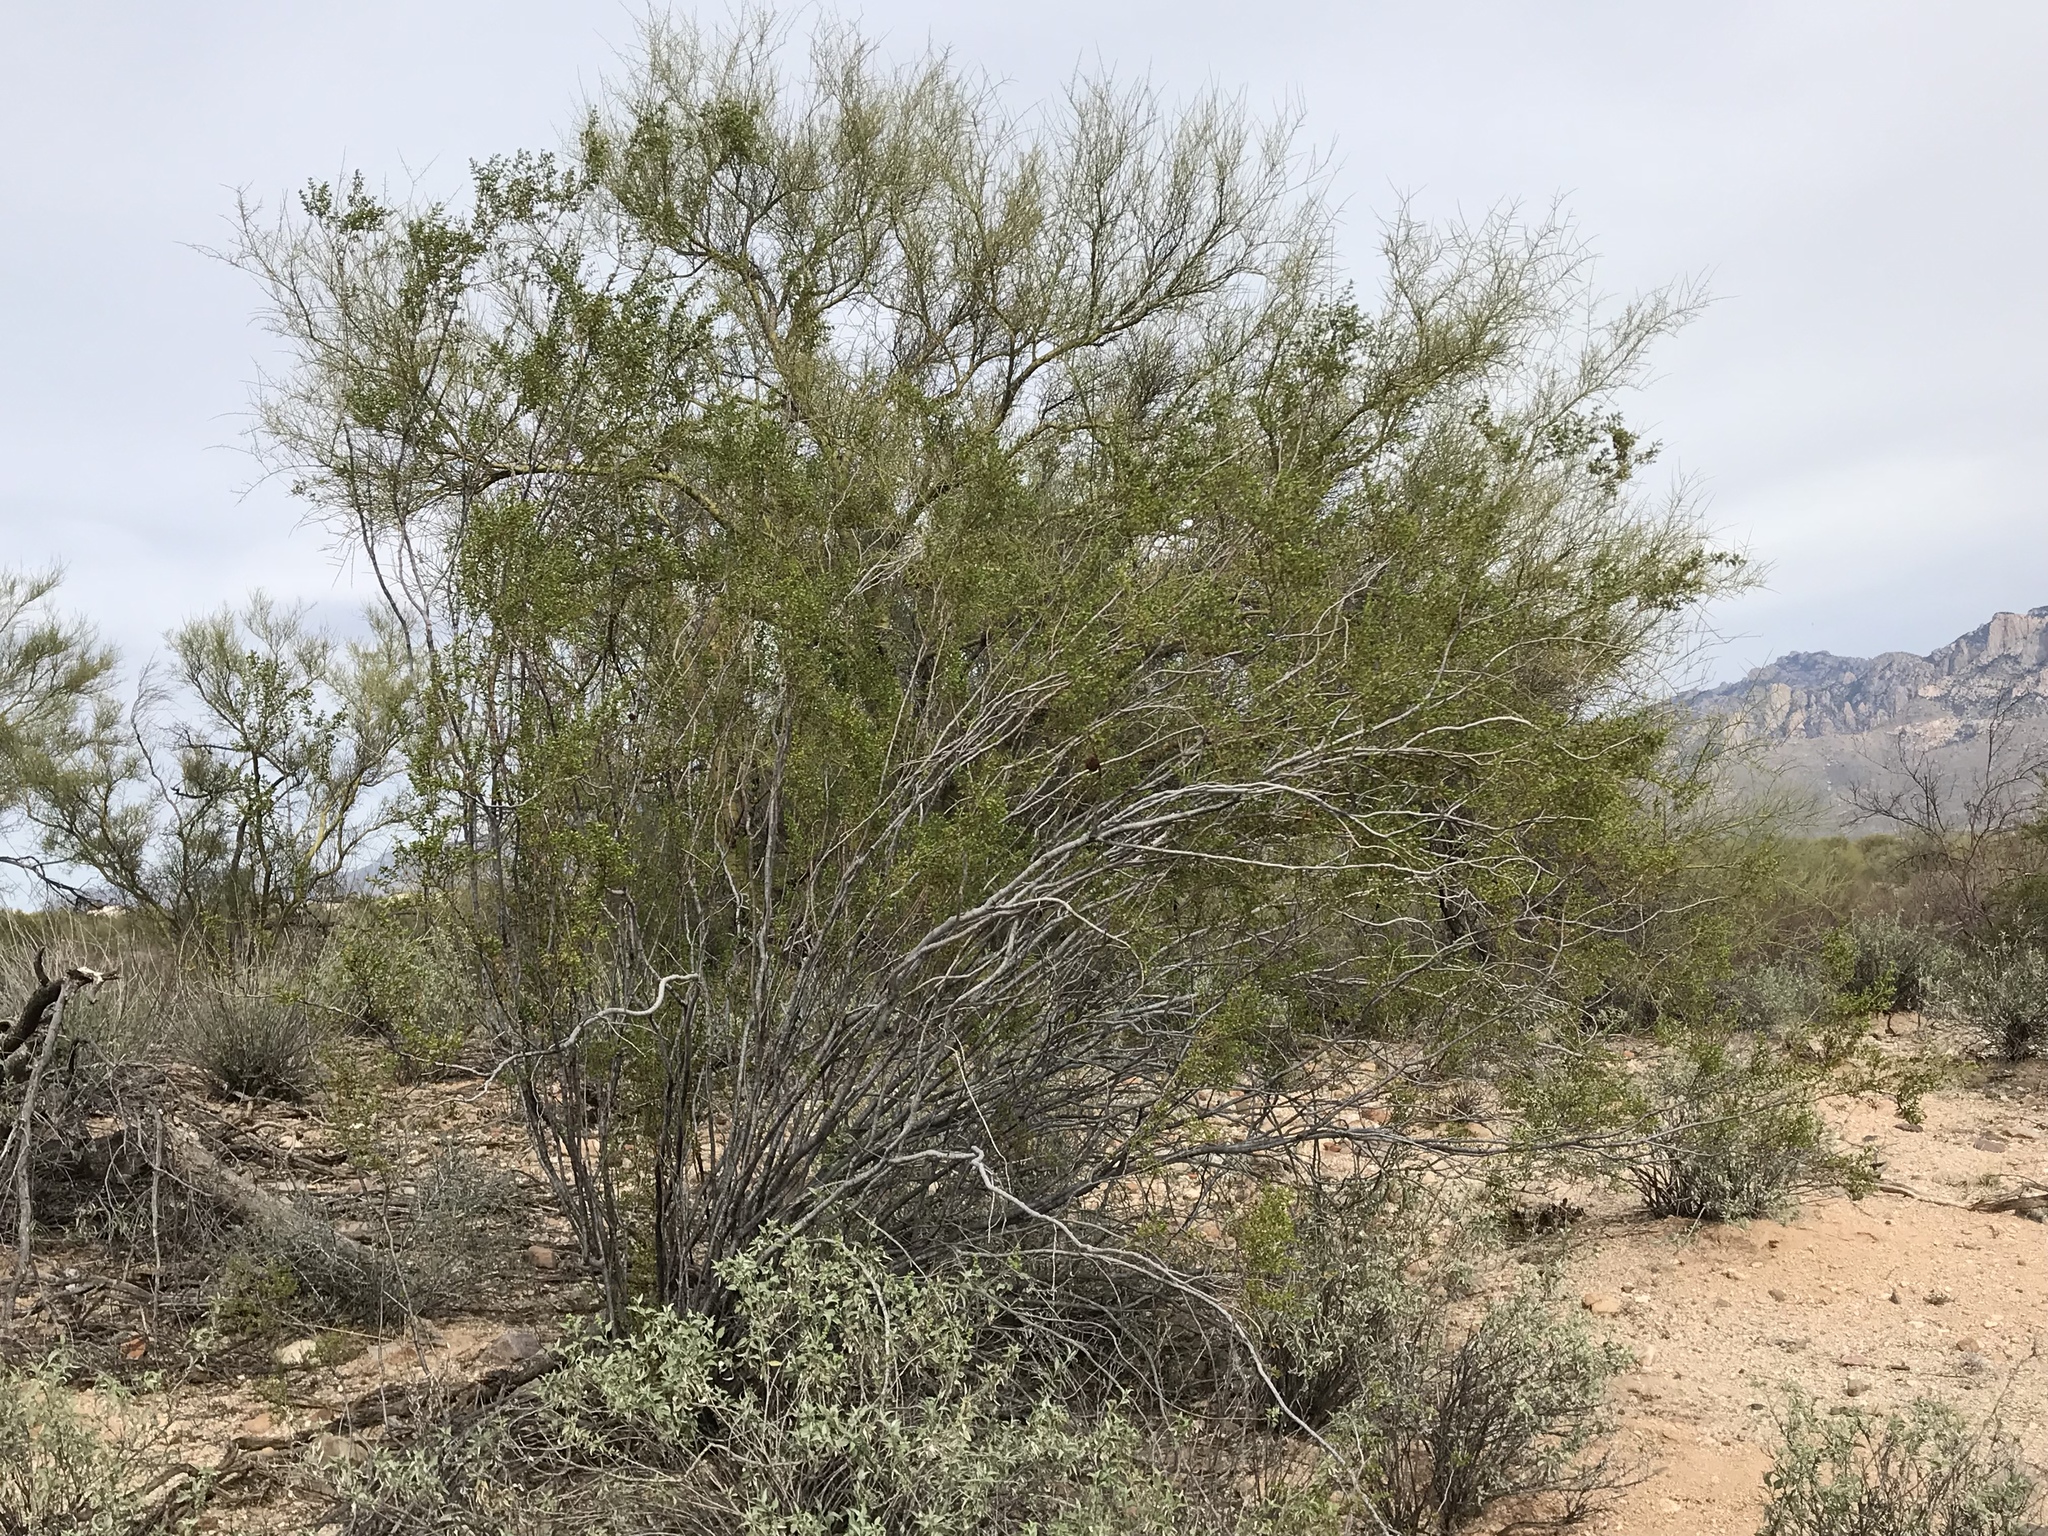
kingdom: Plantae
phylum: Tracheophyta
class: Magnoliopsida
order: Zygophyllales
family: Zygophyllaceae
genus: Larrea
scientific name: Larrea tridentata
